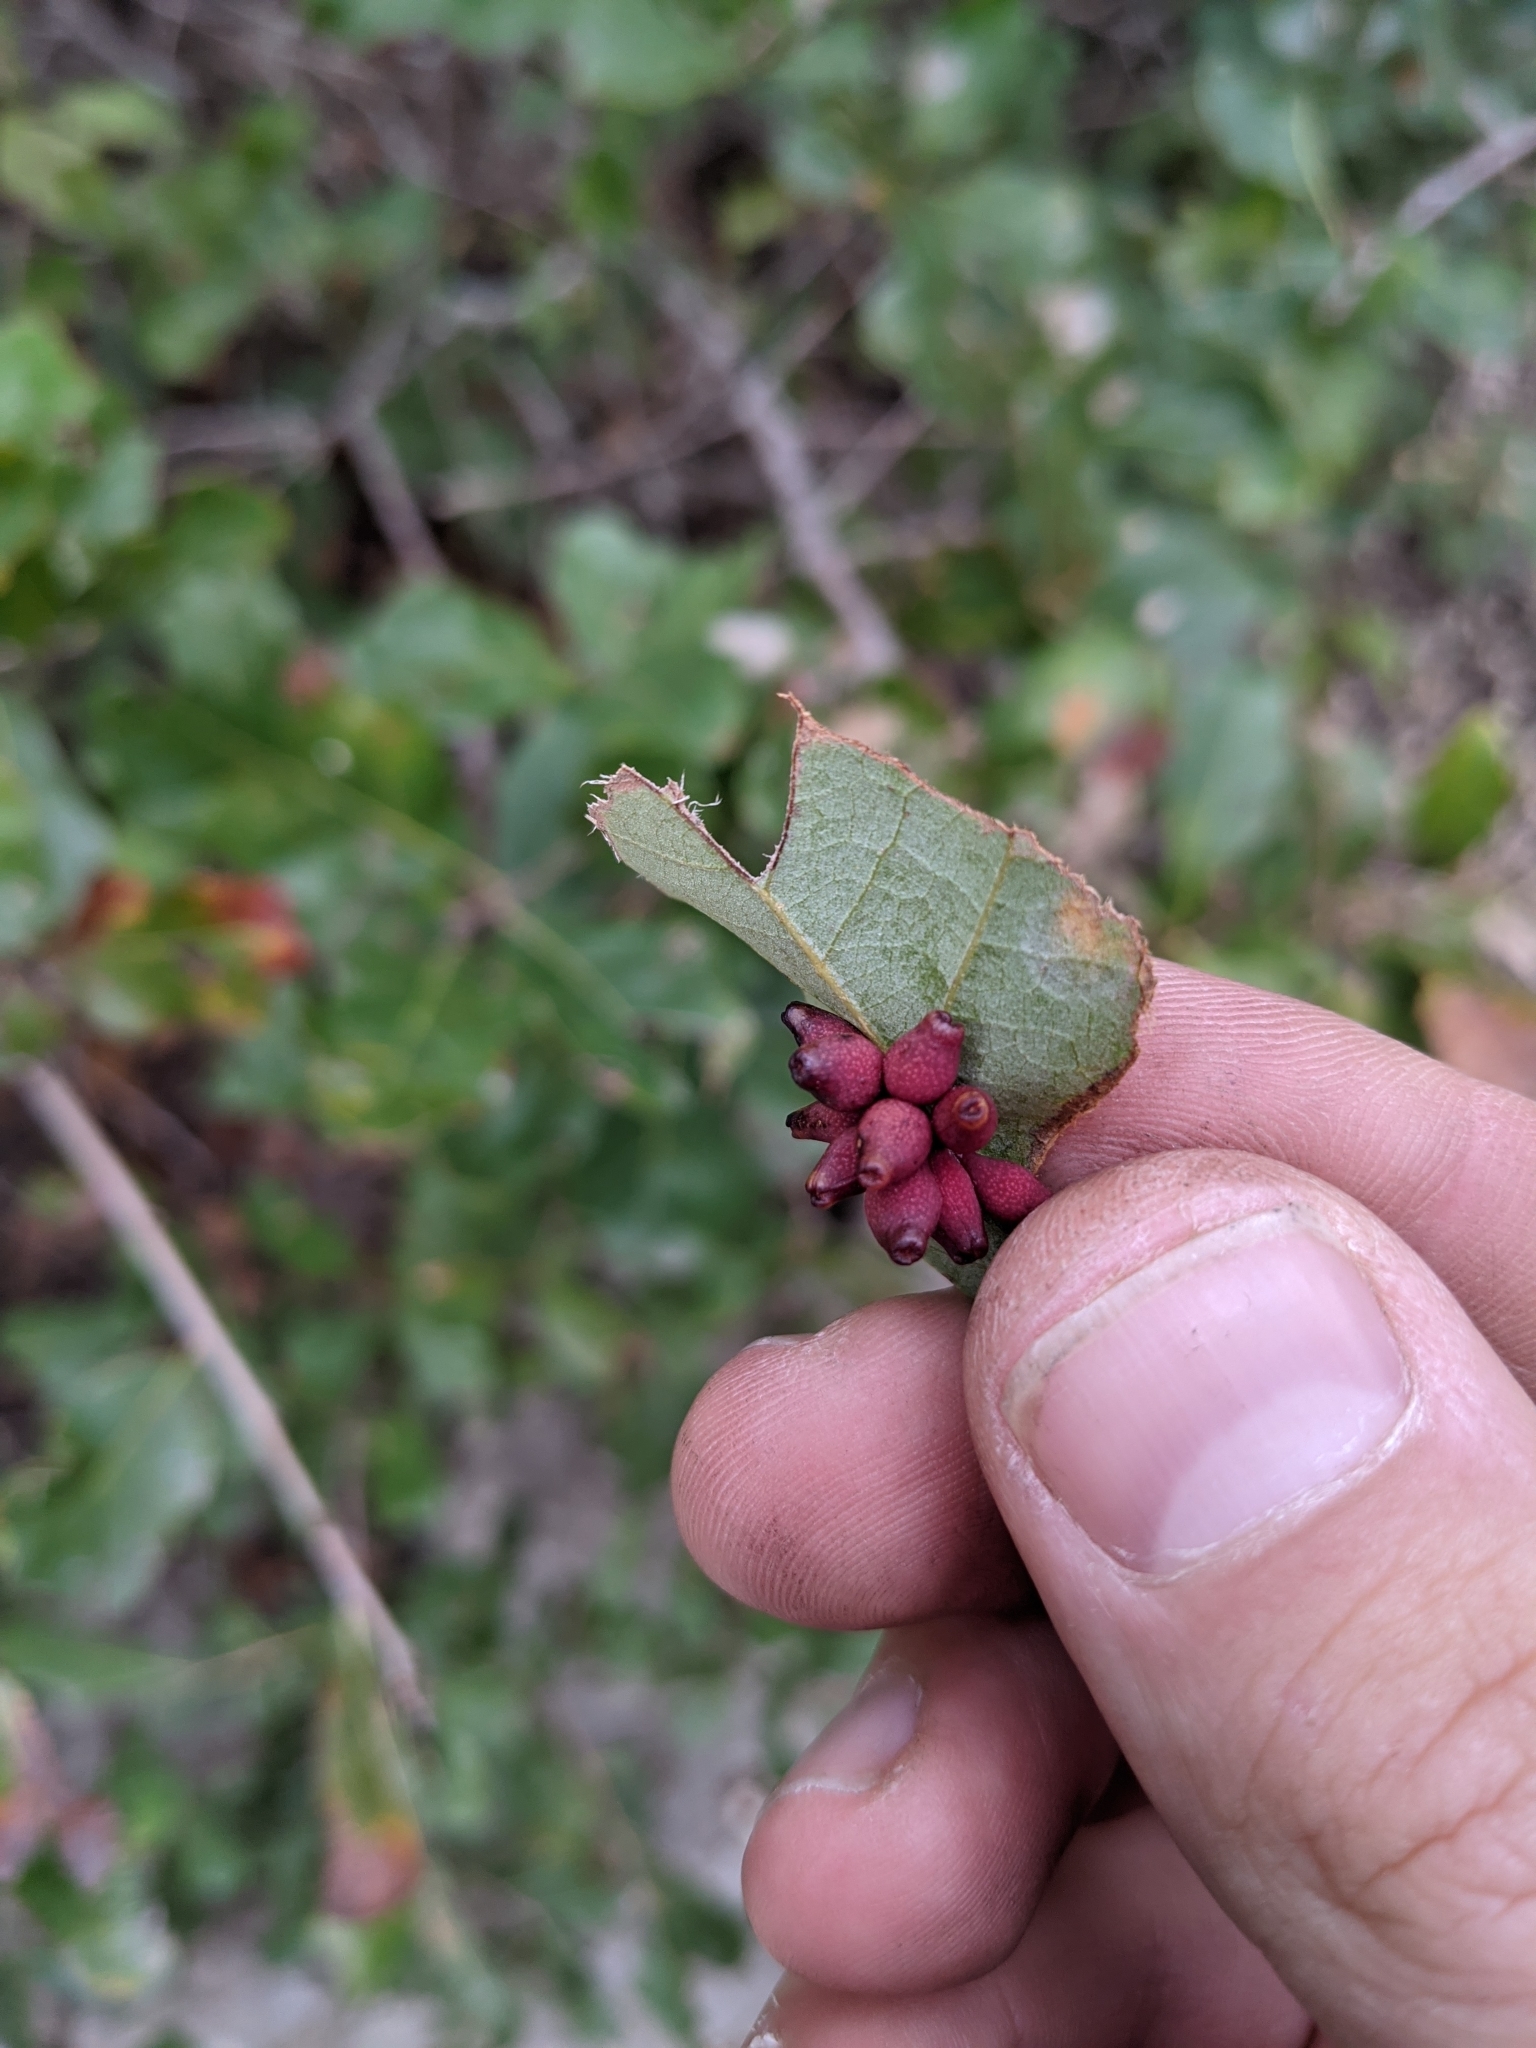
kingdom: Animalia
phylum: Arthropoda
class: Insecta
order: Hymenoptera
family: Cynipidae
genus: Andricus
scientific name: Andricus lustrans
